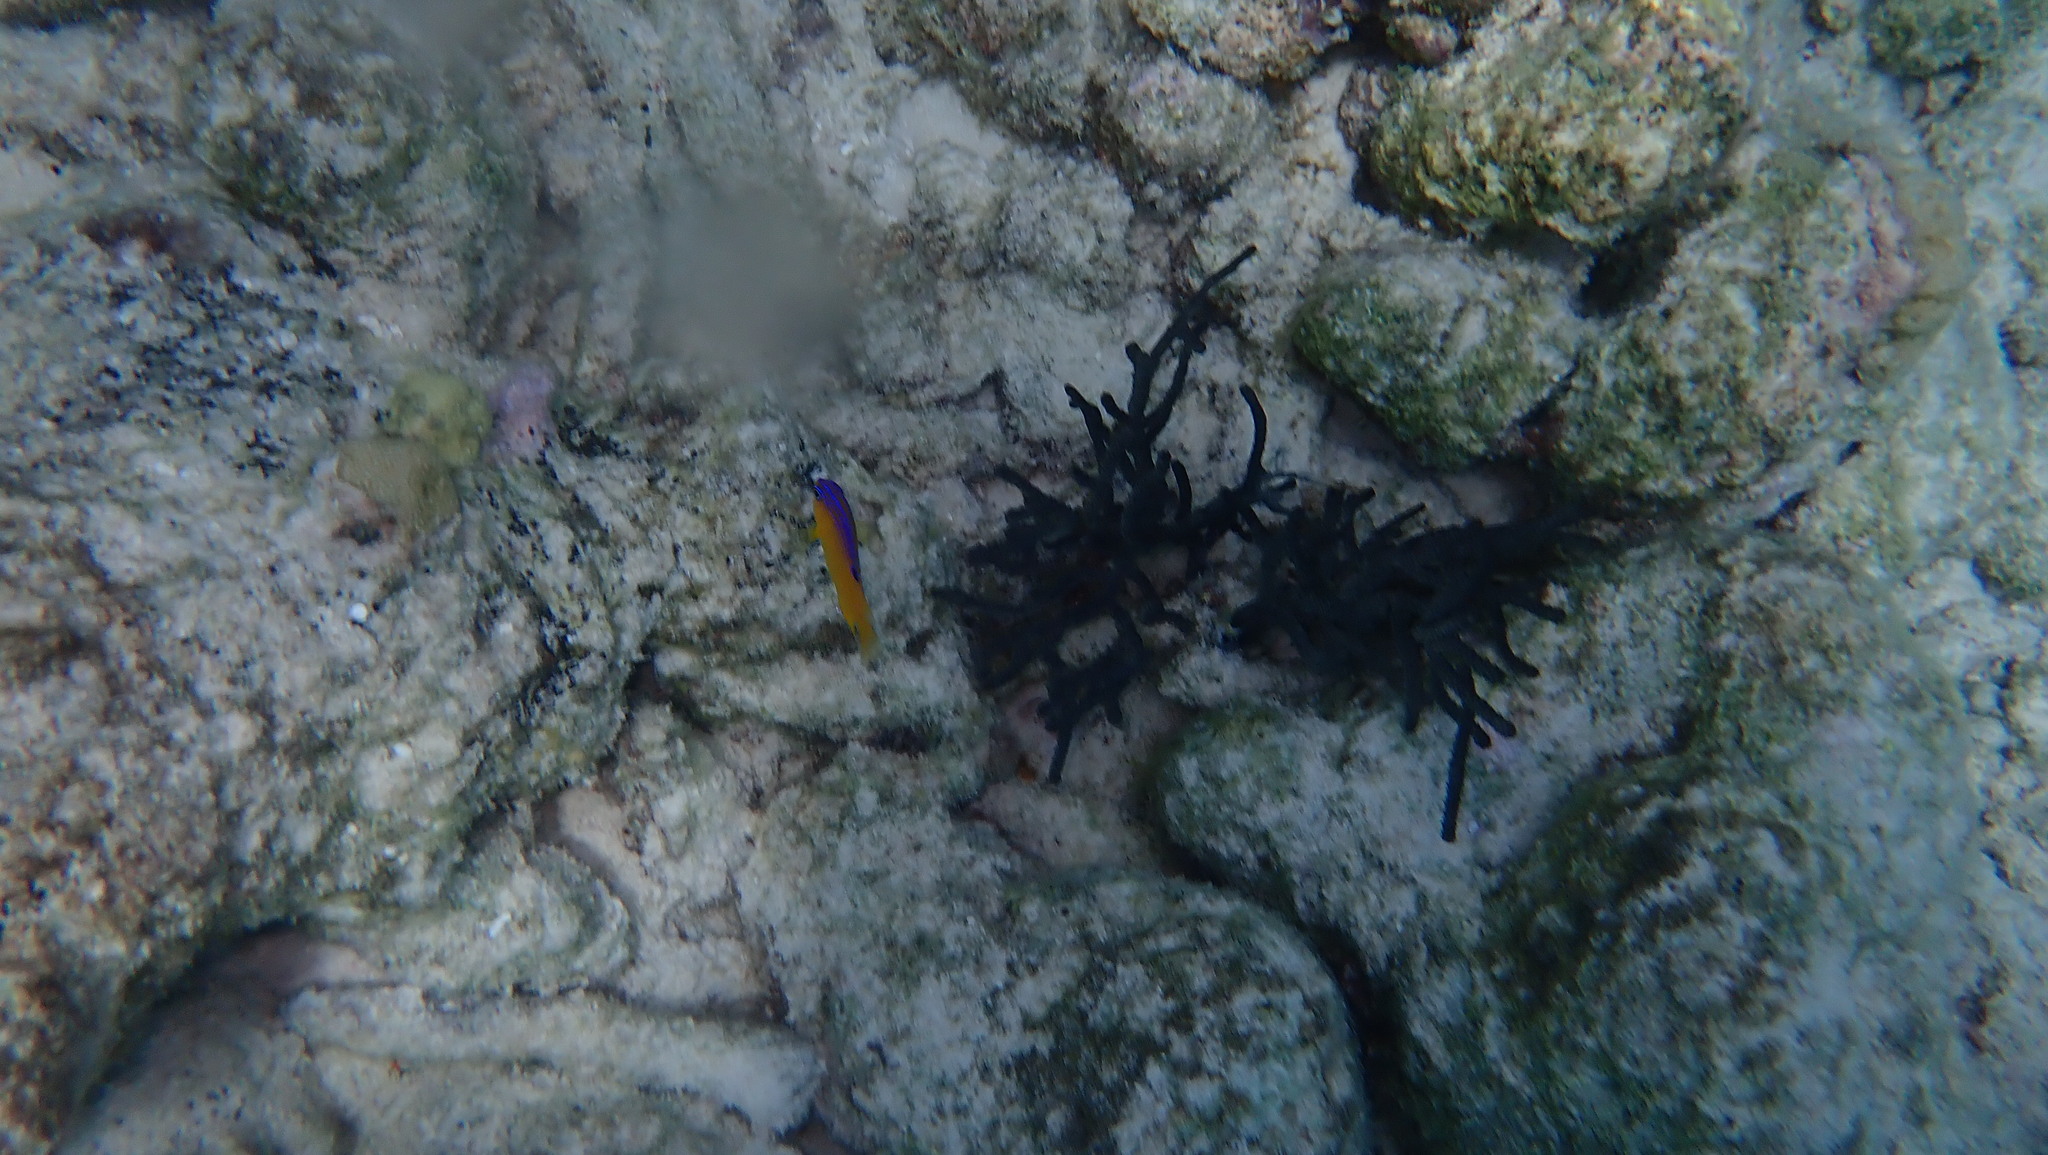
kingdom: Animalia
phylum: Chordata
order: Perciformes
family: Pomacentridae
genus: Stegastes
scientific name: Stegastes diencaeus
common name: Longfin damselfish
